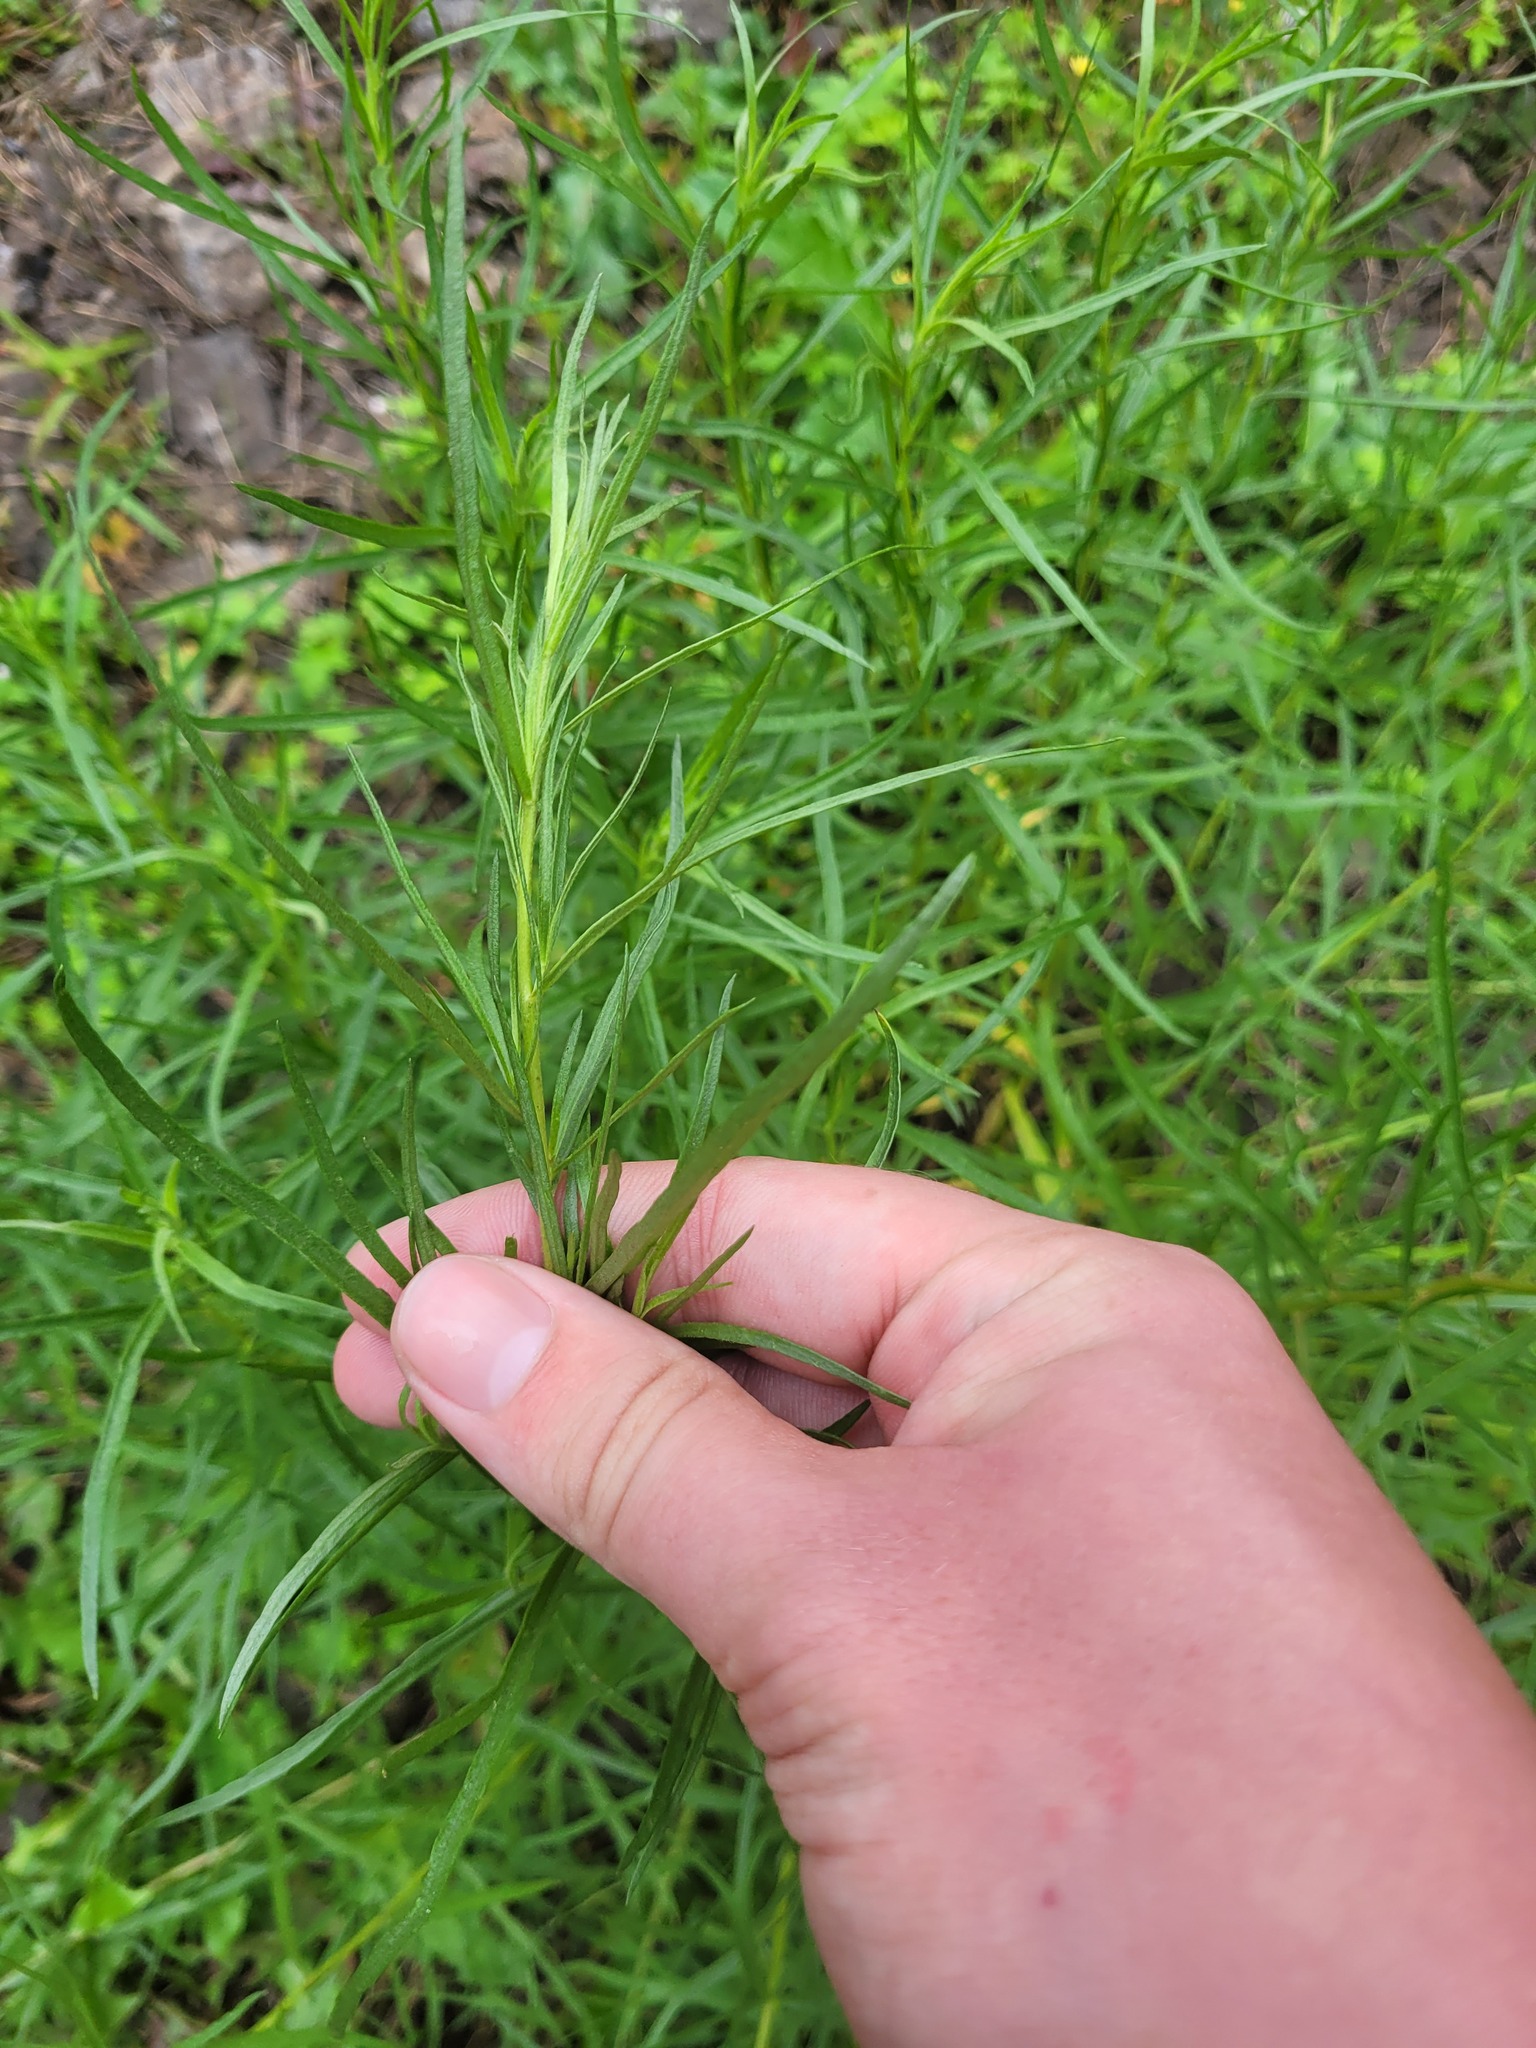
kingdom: Plantae
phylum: Tracheophyta
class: Magnoliopsida
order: Asterales
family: Asteraceae
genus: Artemisia
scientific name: Artemisia dracunculus
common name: Tarragon
